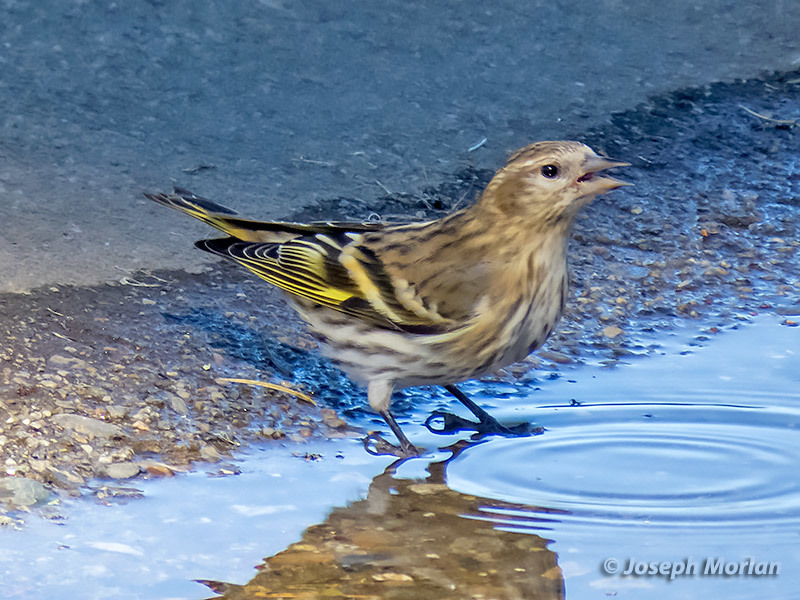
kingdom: Animalia
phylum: Chordata
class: Aves
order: Passeriformes
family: Fringillidae
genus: Spinus
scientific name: Spinus pinus
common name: Pine siskin
